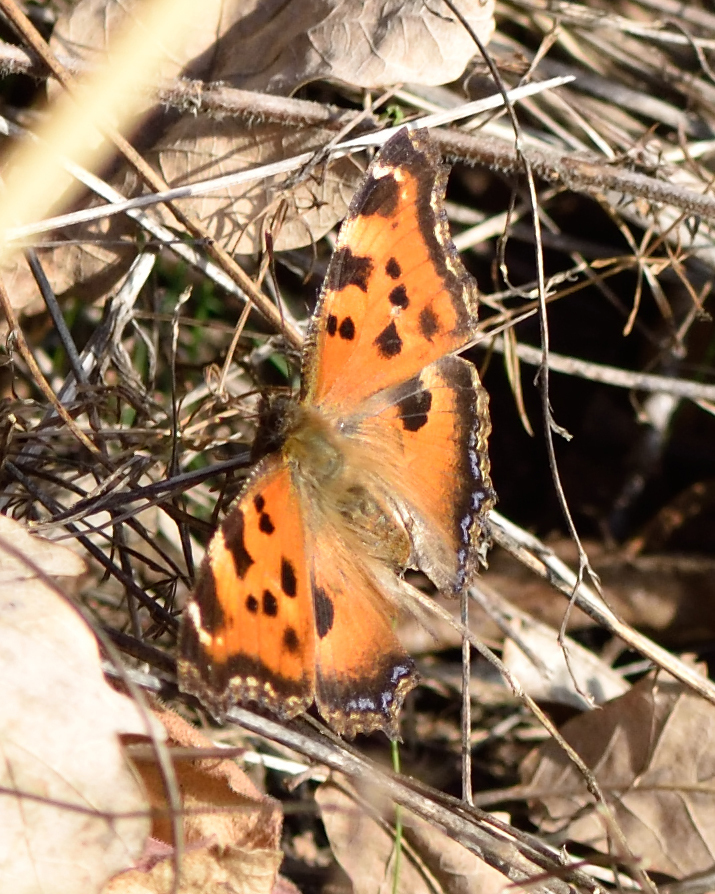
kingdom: Animalia
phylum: Arthropoda
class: Insecta
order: Lepidoptera
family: Nymphalidae
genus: Nymphalis
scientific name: Nymphalis xanthomelas
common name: Scarce tortoiseshell
